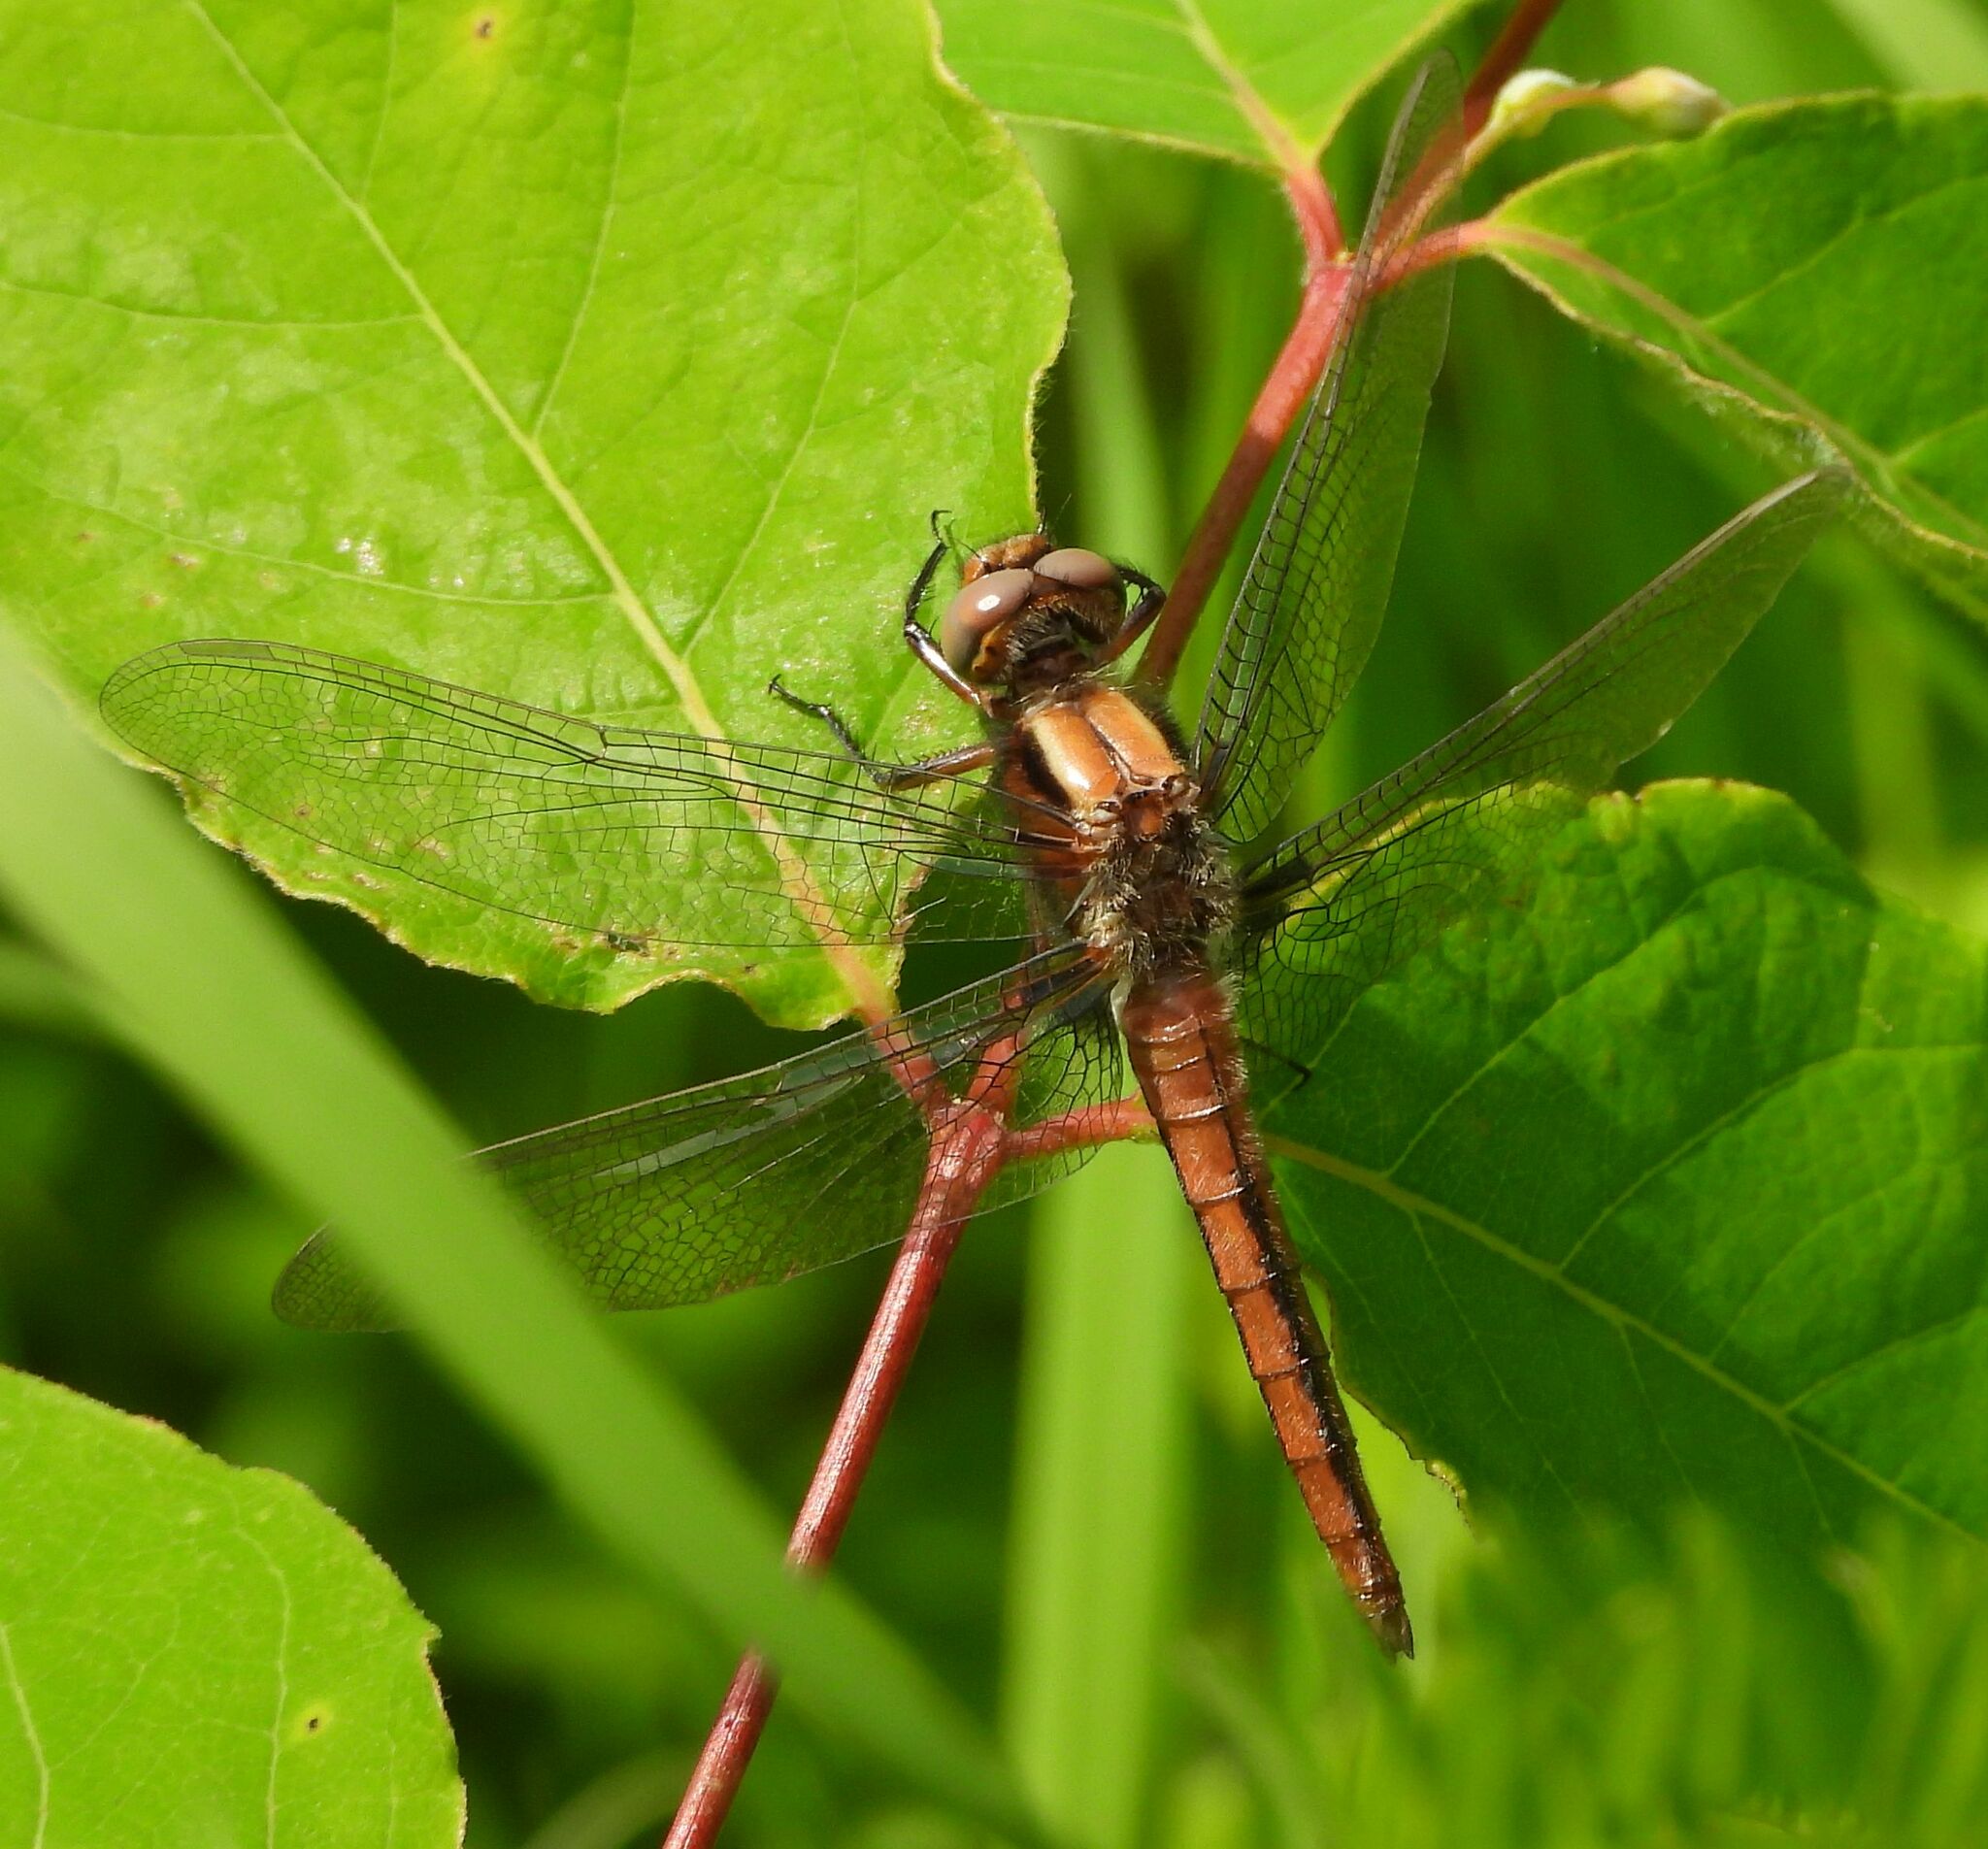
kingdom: Animalia
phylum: Arthropoda
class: Insecta
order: Odonata
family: Libellulidae
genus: Ladona
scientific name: Ladona julia
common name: Chalk-fronted corporal
